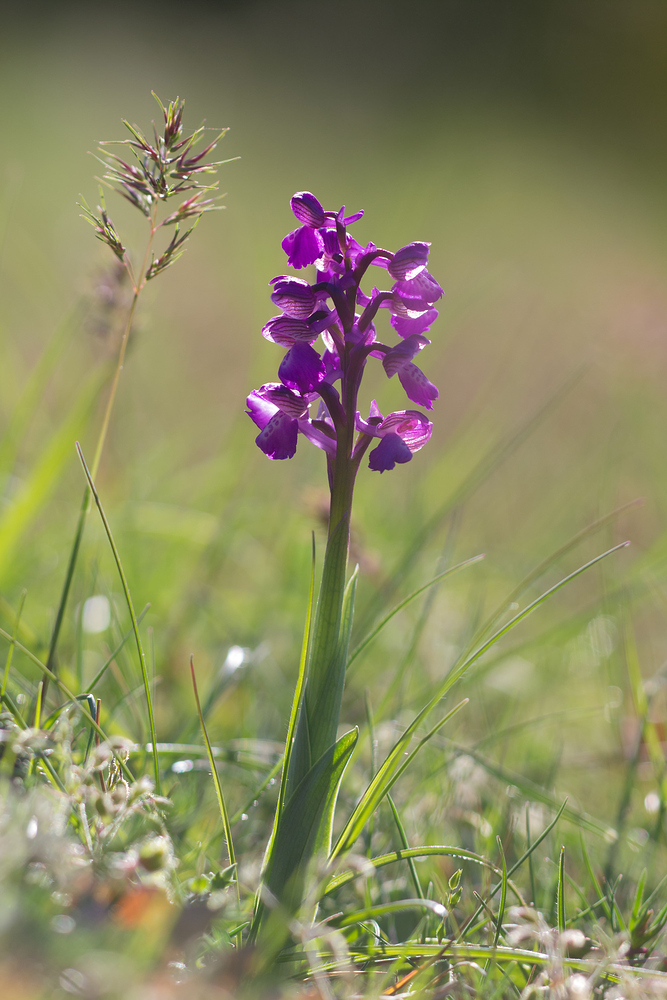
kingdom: Plantae
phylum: Tracheophyta
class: Liliopsida
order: Asparagales
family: Orchidaceae
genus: Anacamptis
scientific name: Anacamptis morio
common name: Green-winged orchid
